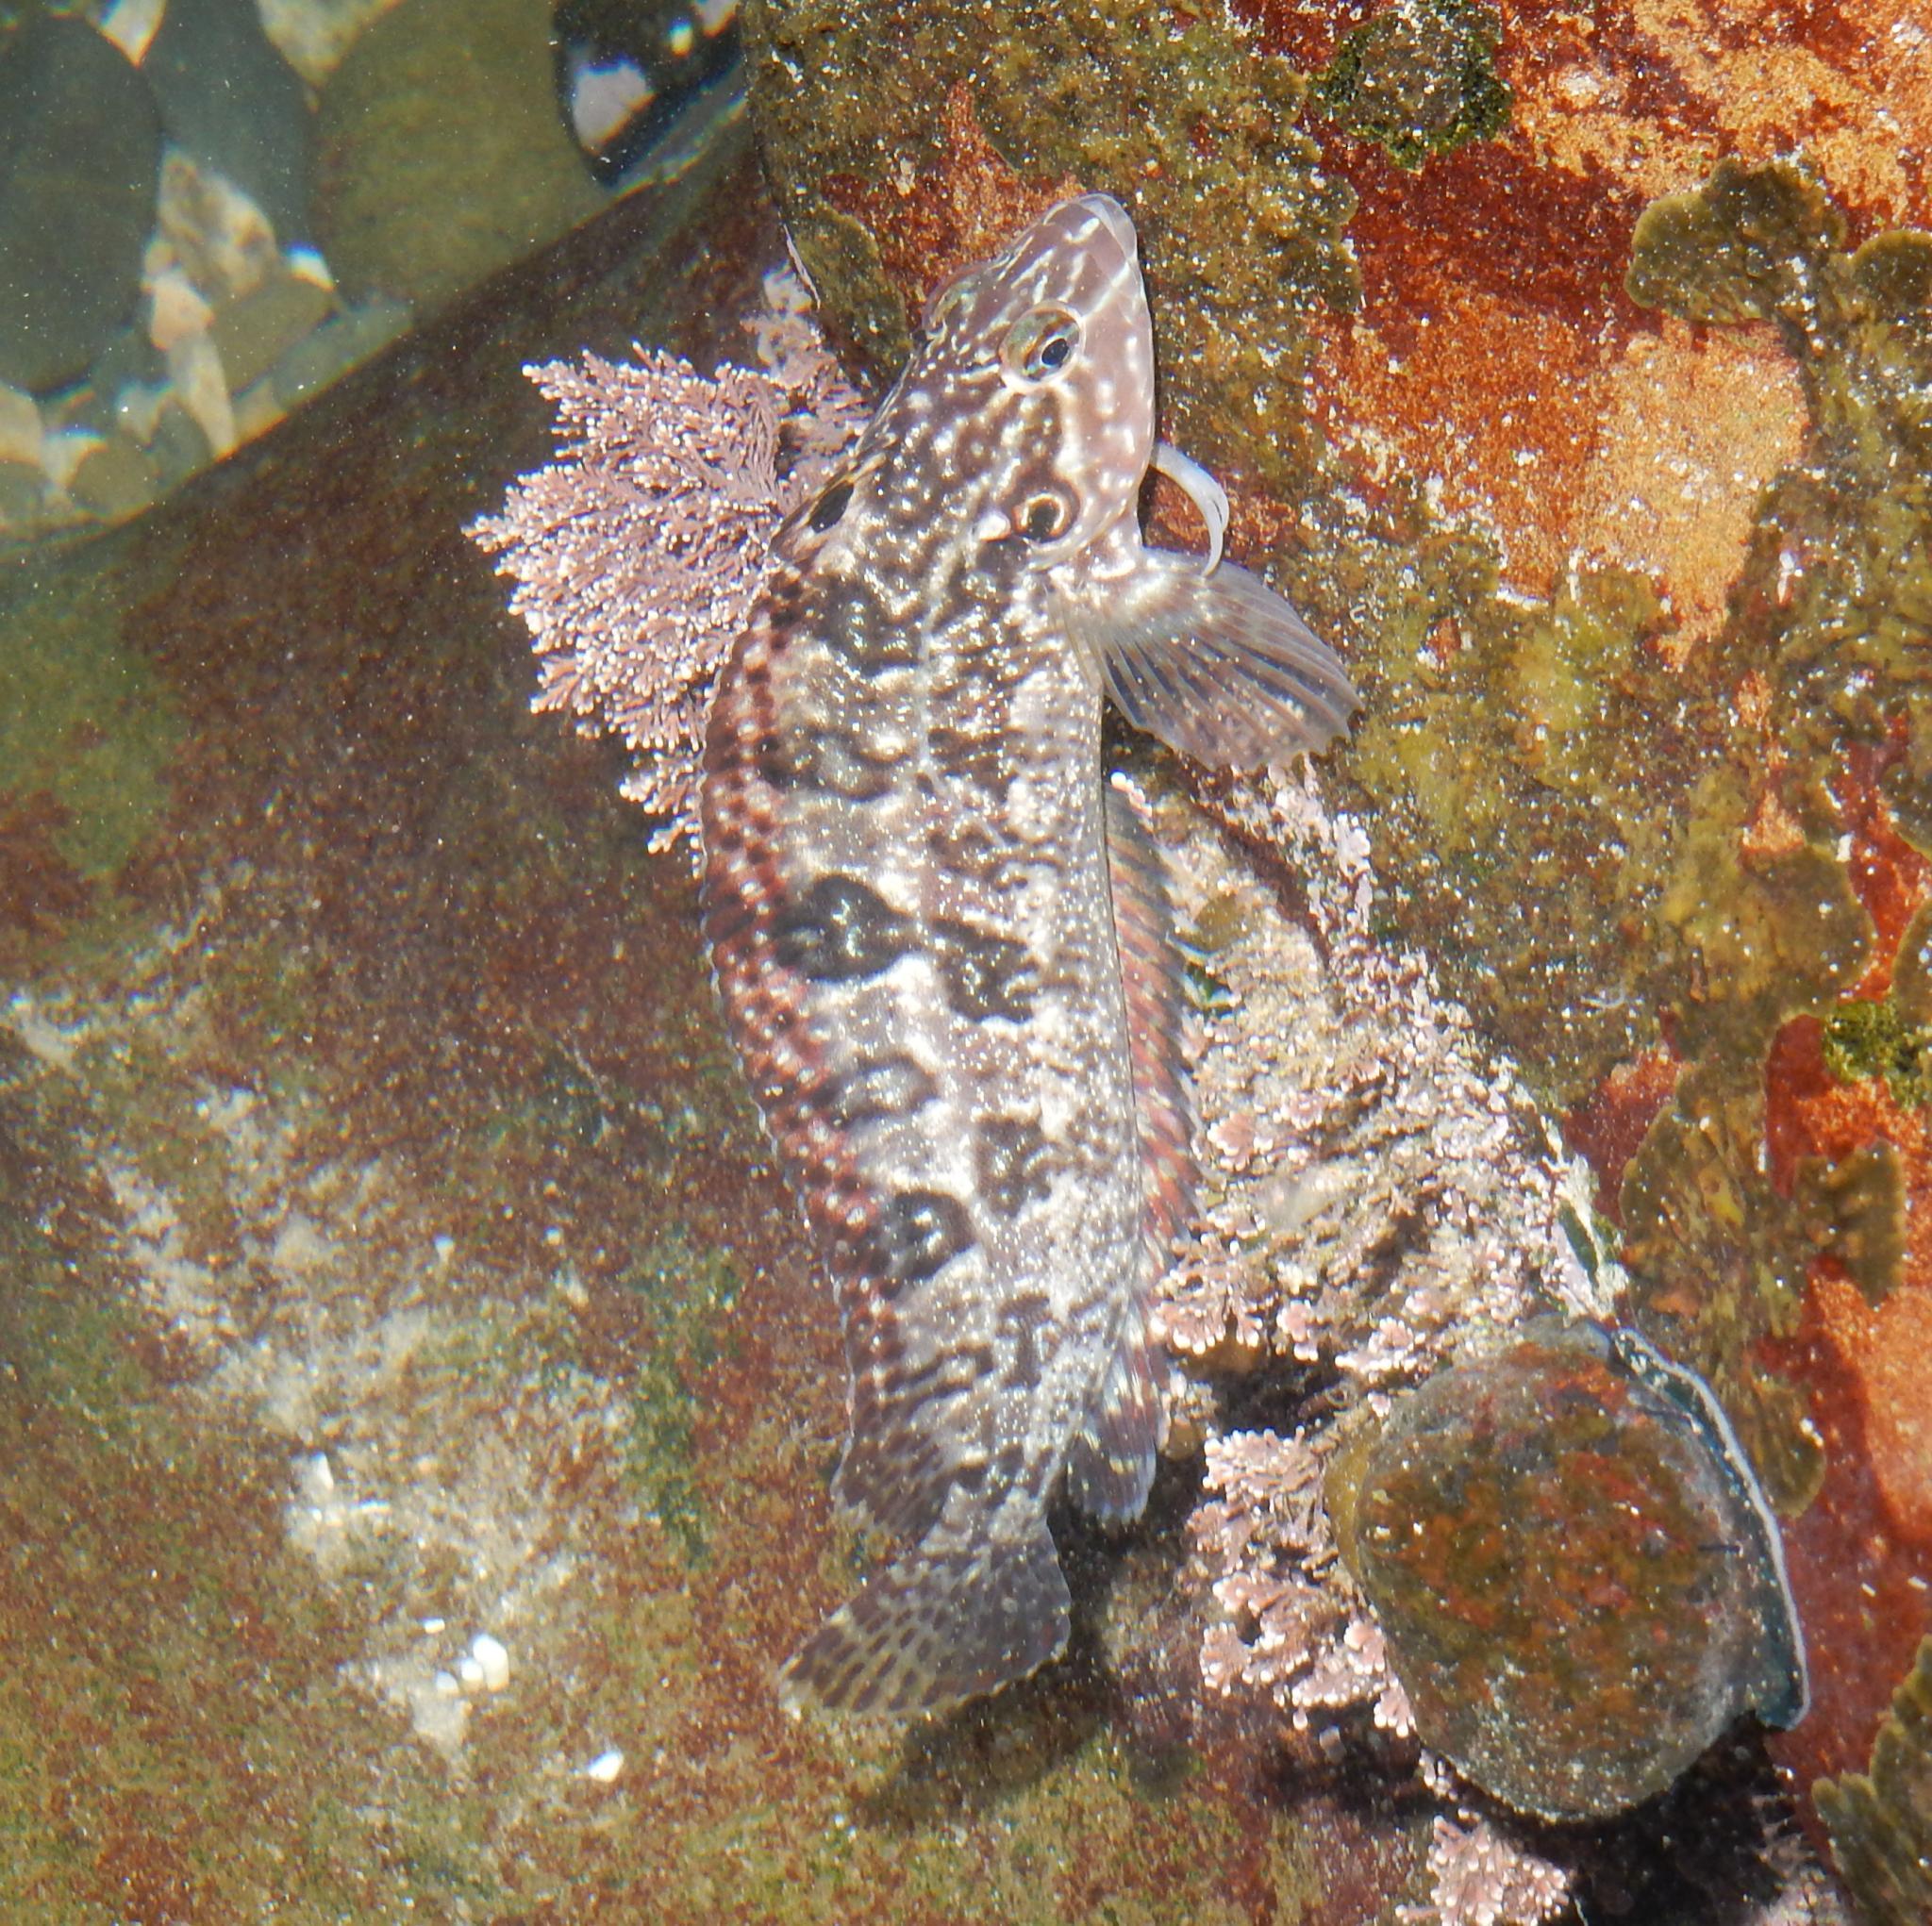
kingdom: Animalia
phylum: Chordata
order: Perciformes
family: Clinidae
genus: Clinus
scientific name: Clinus superciliosus
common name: Super klipfish
